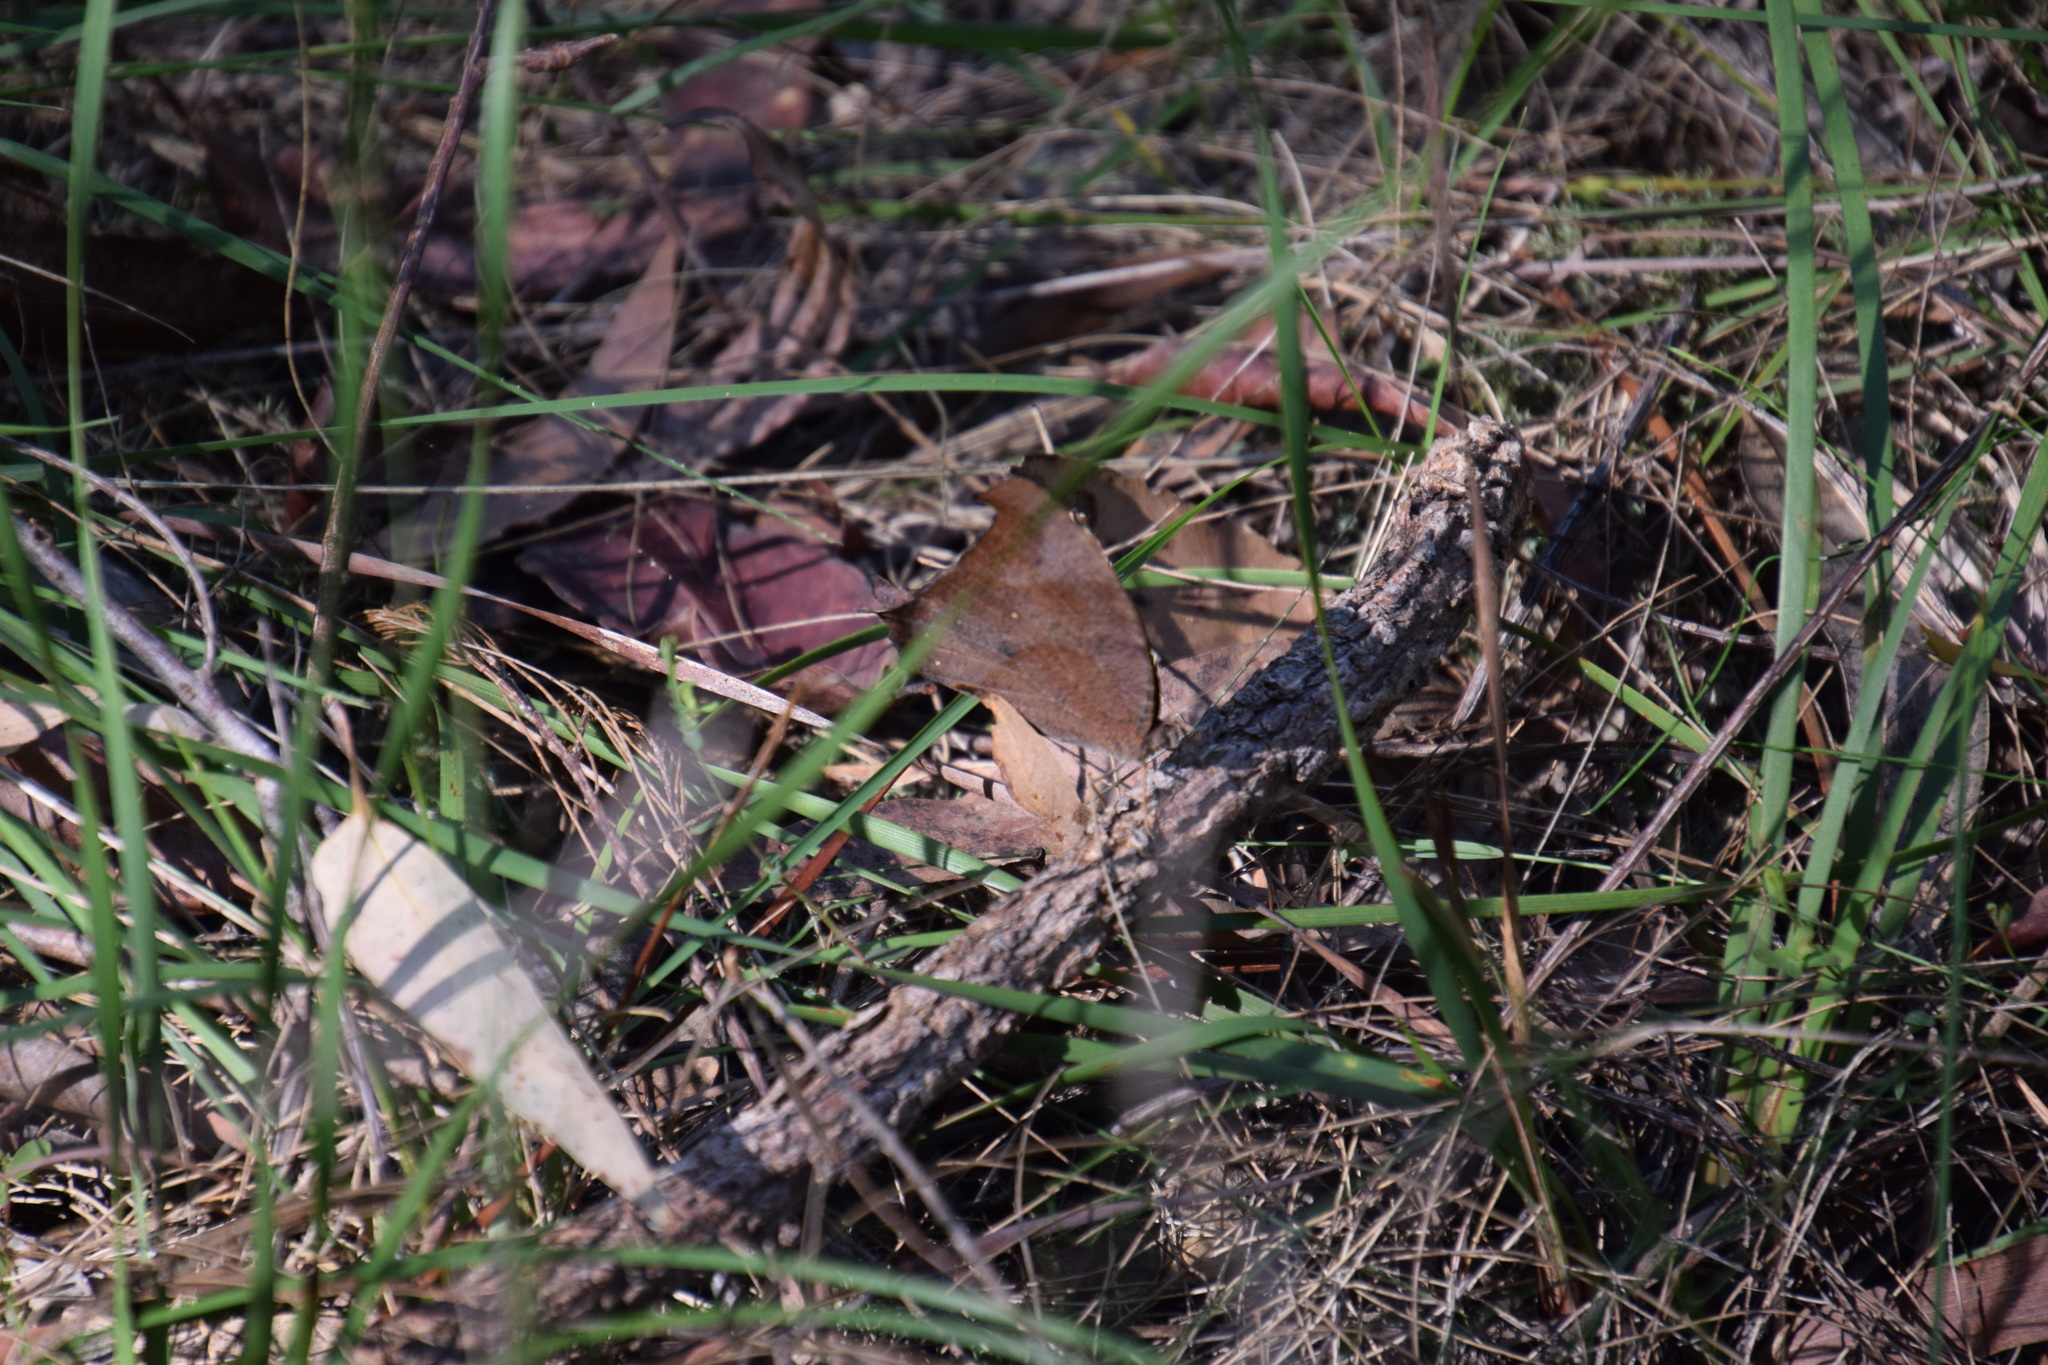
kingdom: Animalia
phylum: Arthropoda
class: Insecta
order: Lepidoptera
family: Nymphalidae
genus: Melanitis
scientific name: Melanitis leda
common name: Twilight brown
